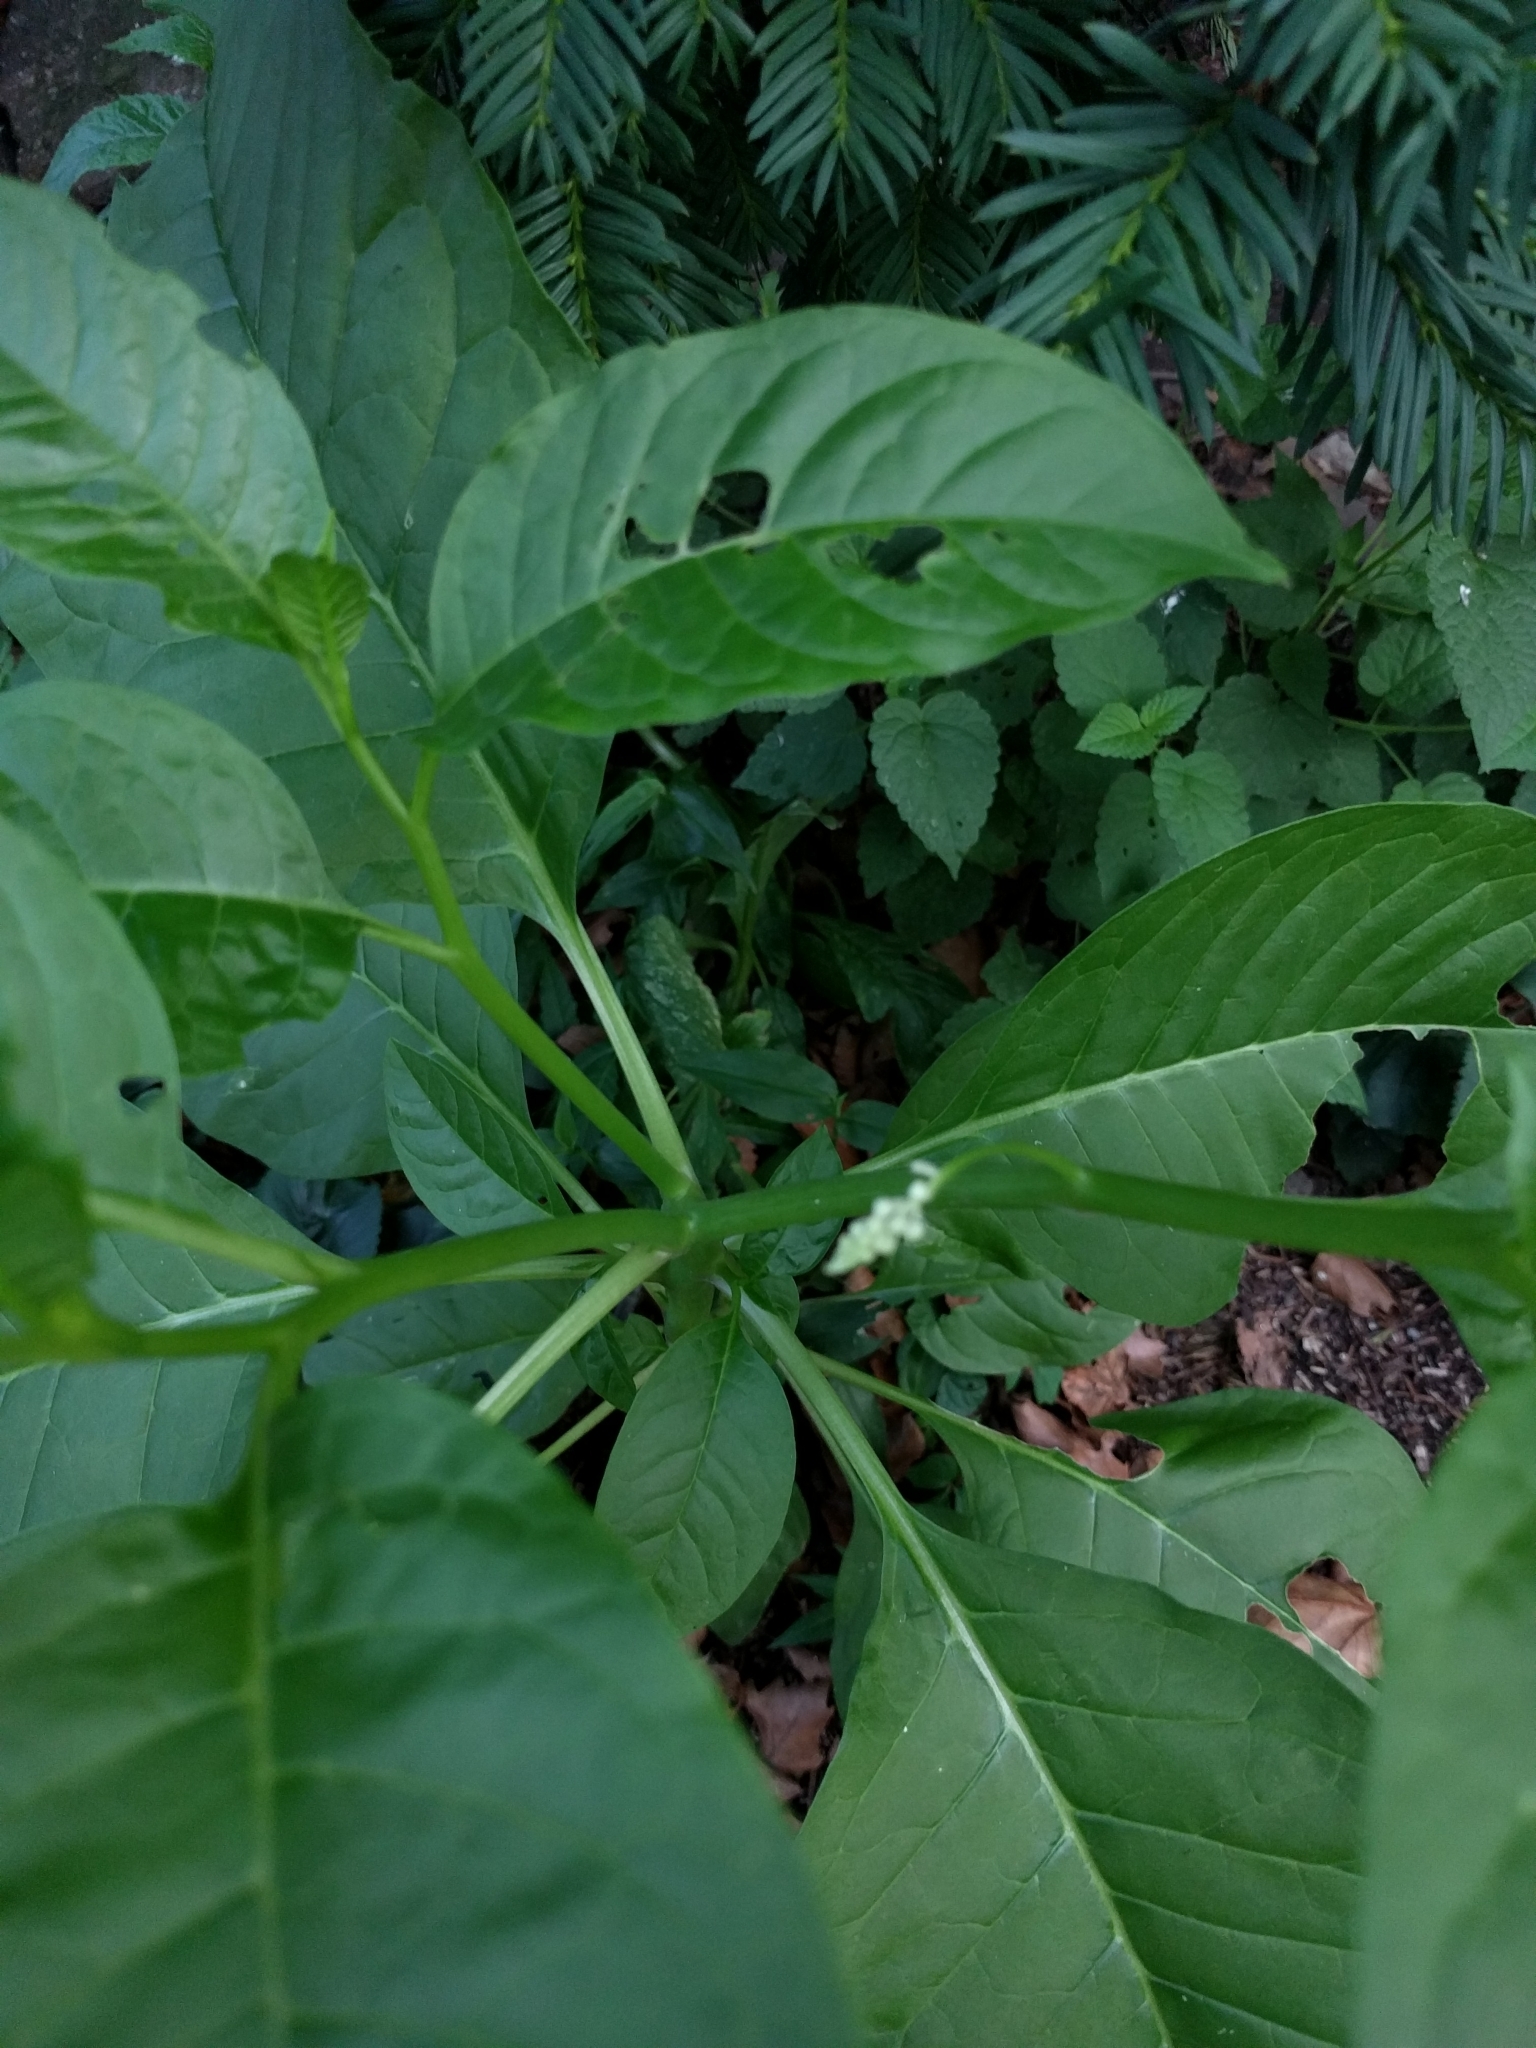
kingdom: Plantae
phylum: Tracheophyta
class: Magnoliopsida
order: Caryophyllales
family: Phytolaccaceae
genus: Phytolacca
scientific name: Phytolacca americana
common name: American pokeweed
